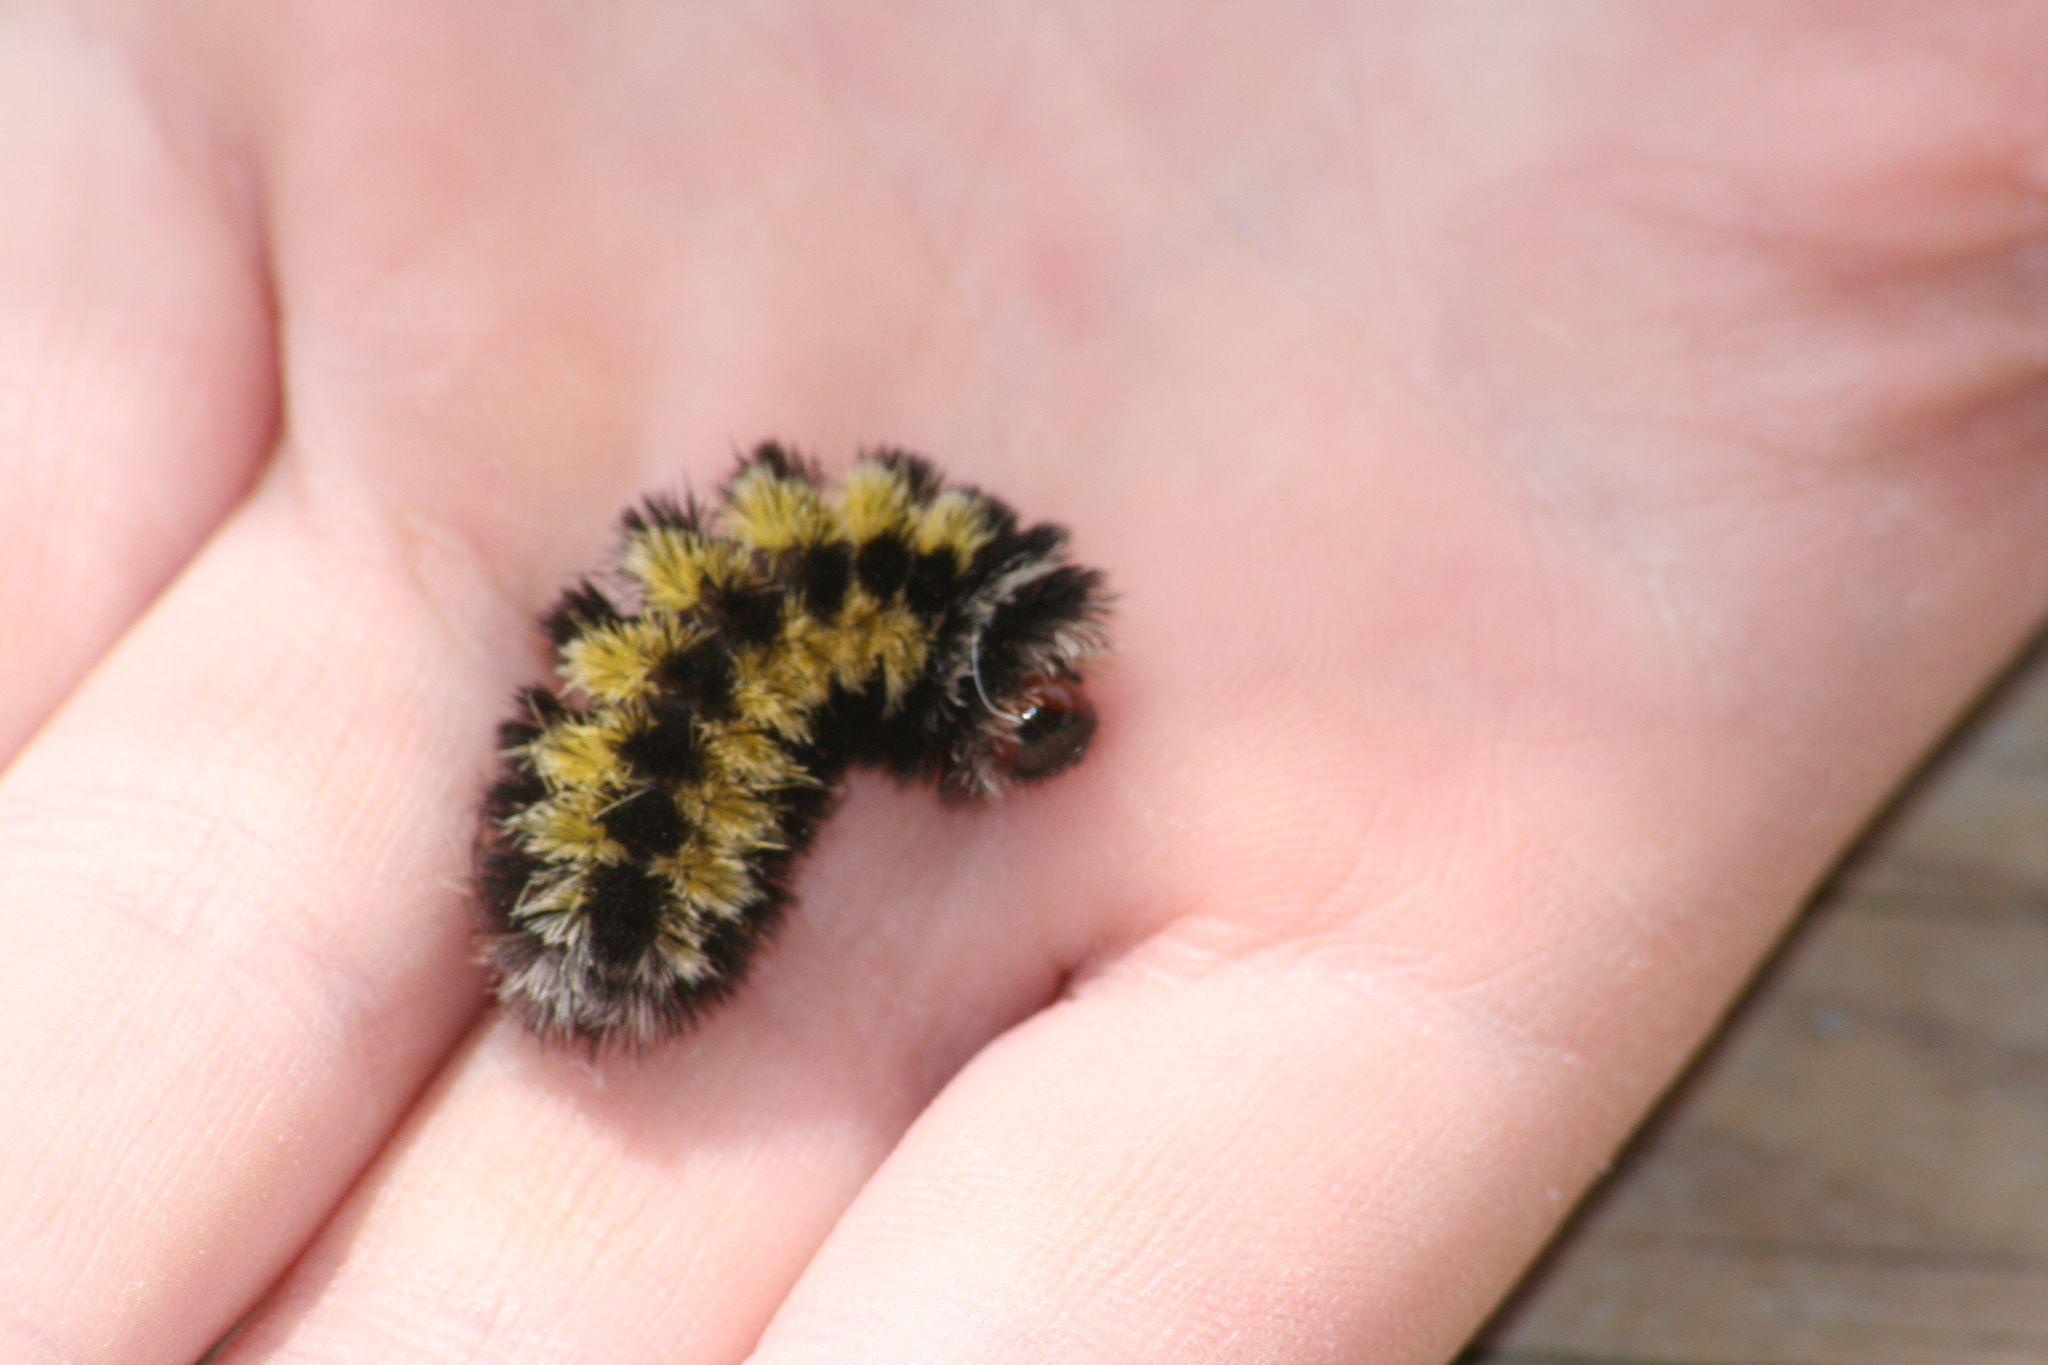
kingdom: Animalia
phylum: Arthropoda
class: Insecta
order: Lepidoptera
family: Erebidae
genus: Ctenucha
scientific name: Ctenucha virginica
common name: Virginia ctenucha moth
